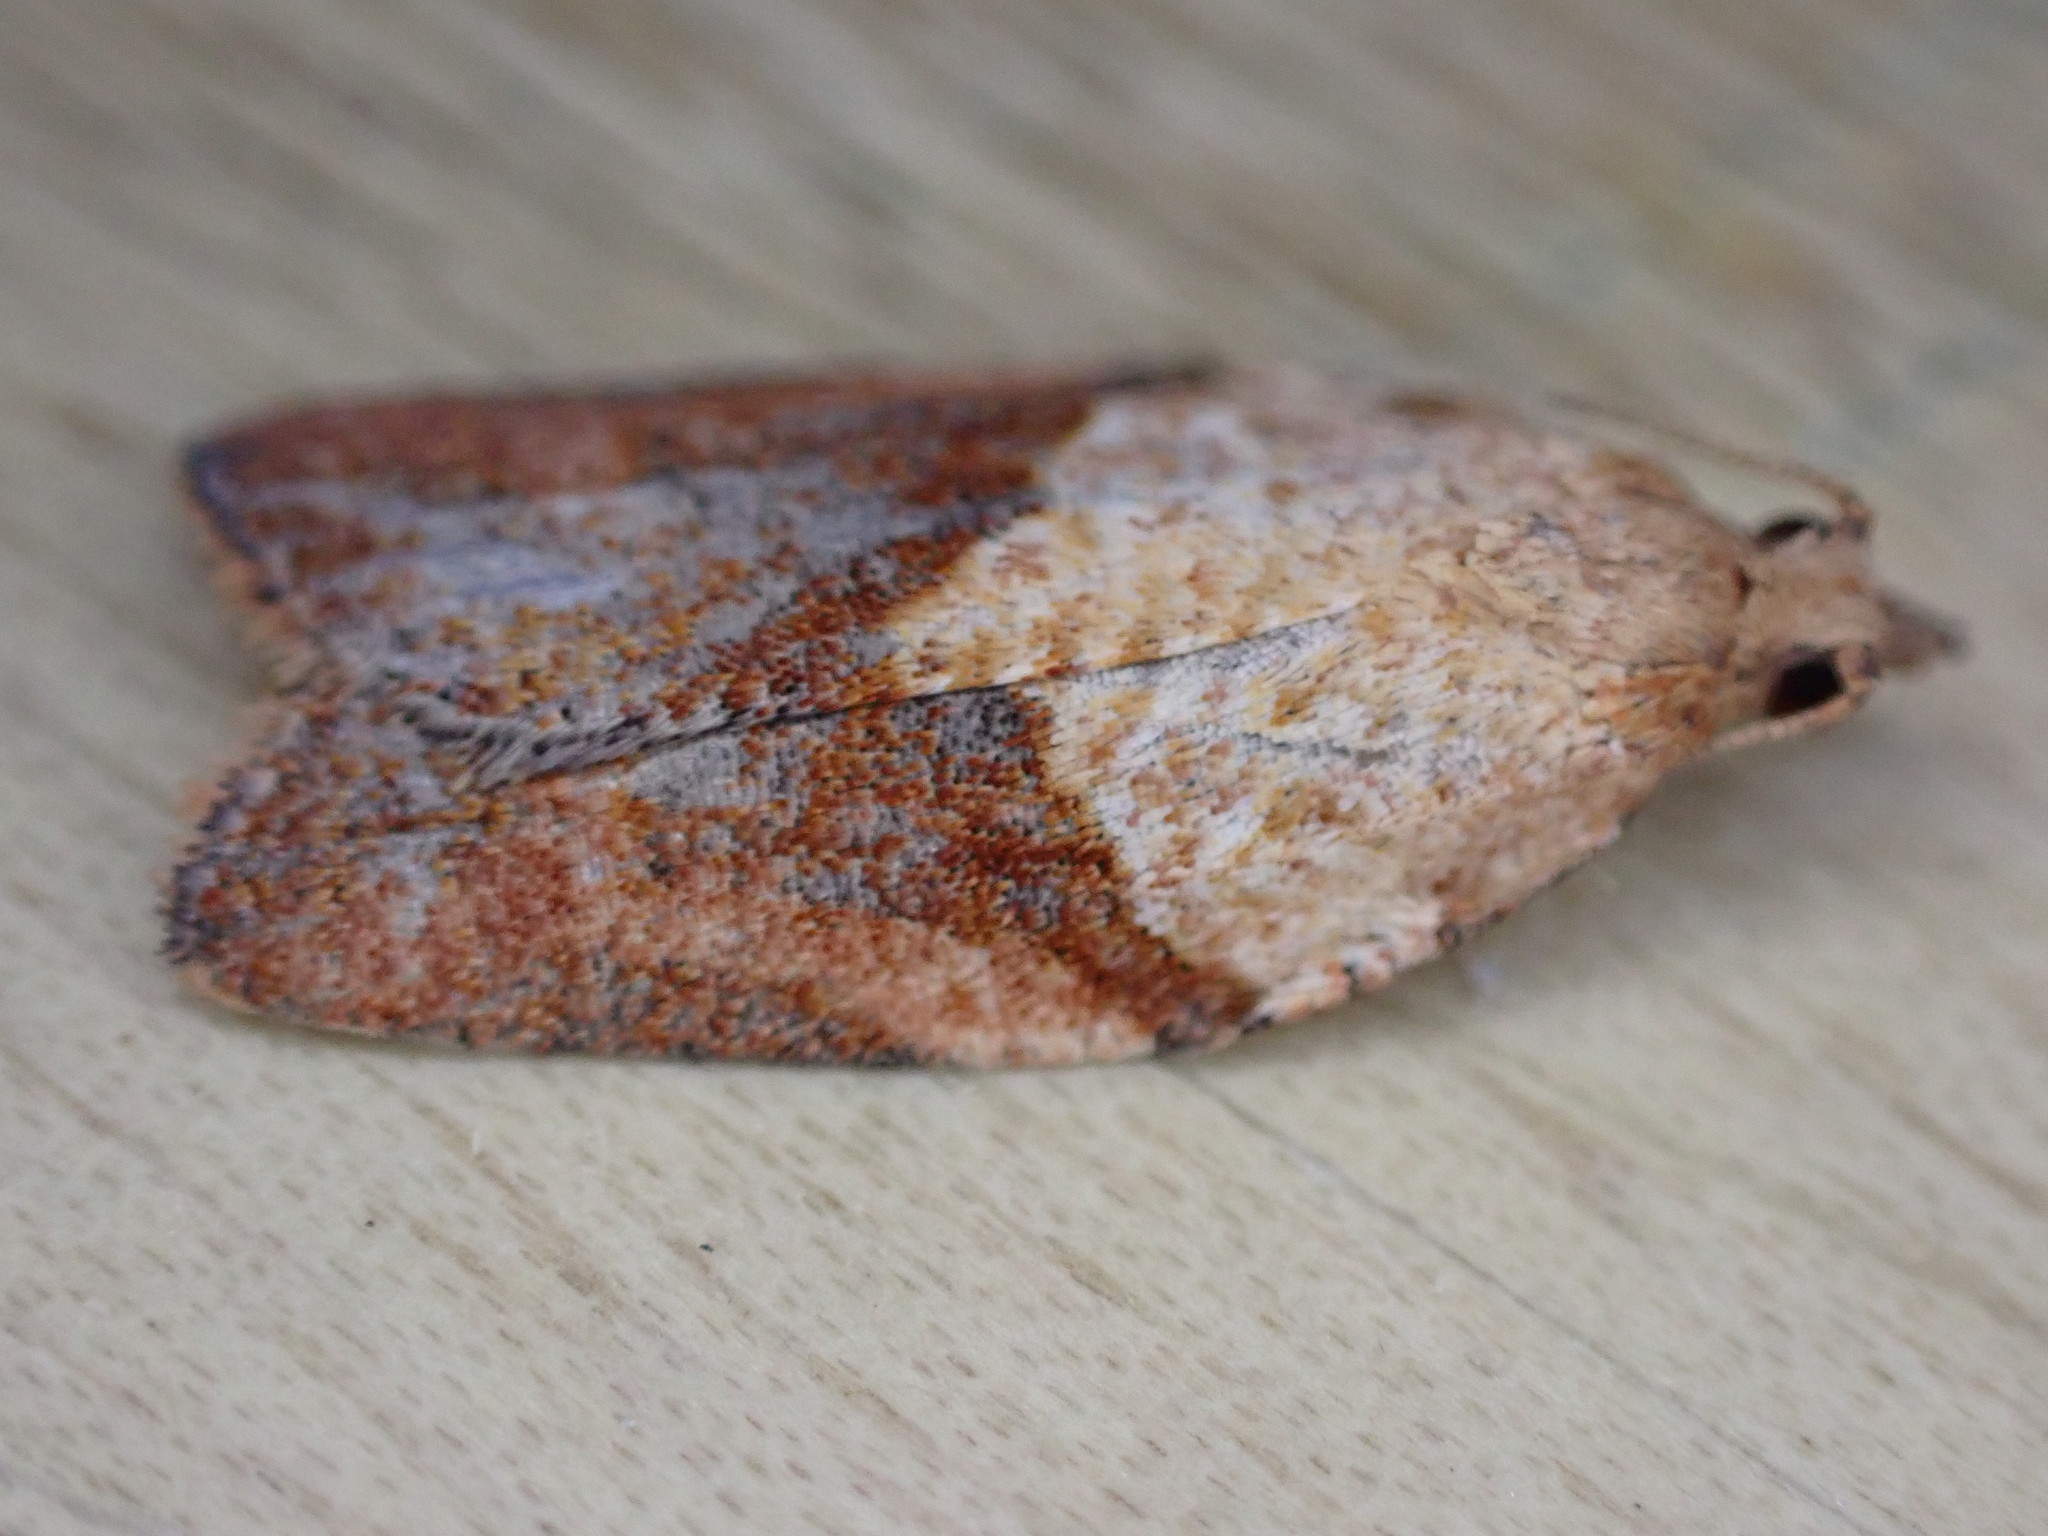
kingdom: Animalia
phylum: Arthropoda
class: Insecta
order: Lepidoptera
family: Tortricidae
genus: Epiphyas
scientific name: Epiphyas postvittana
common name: Light brown apple moth
